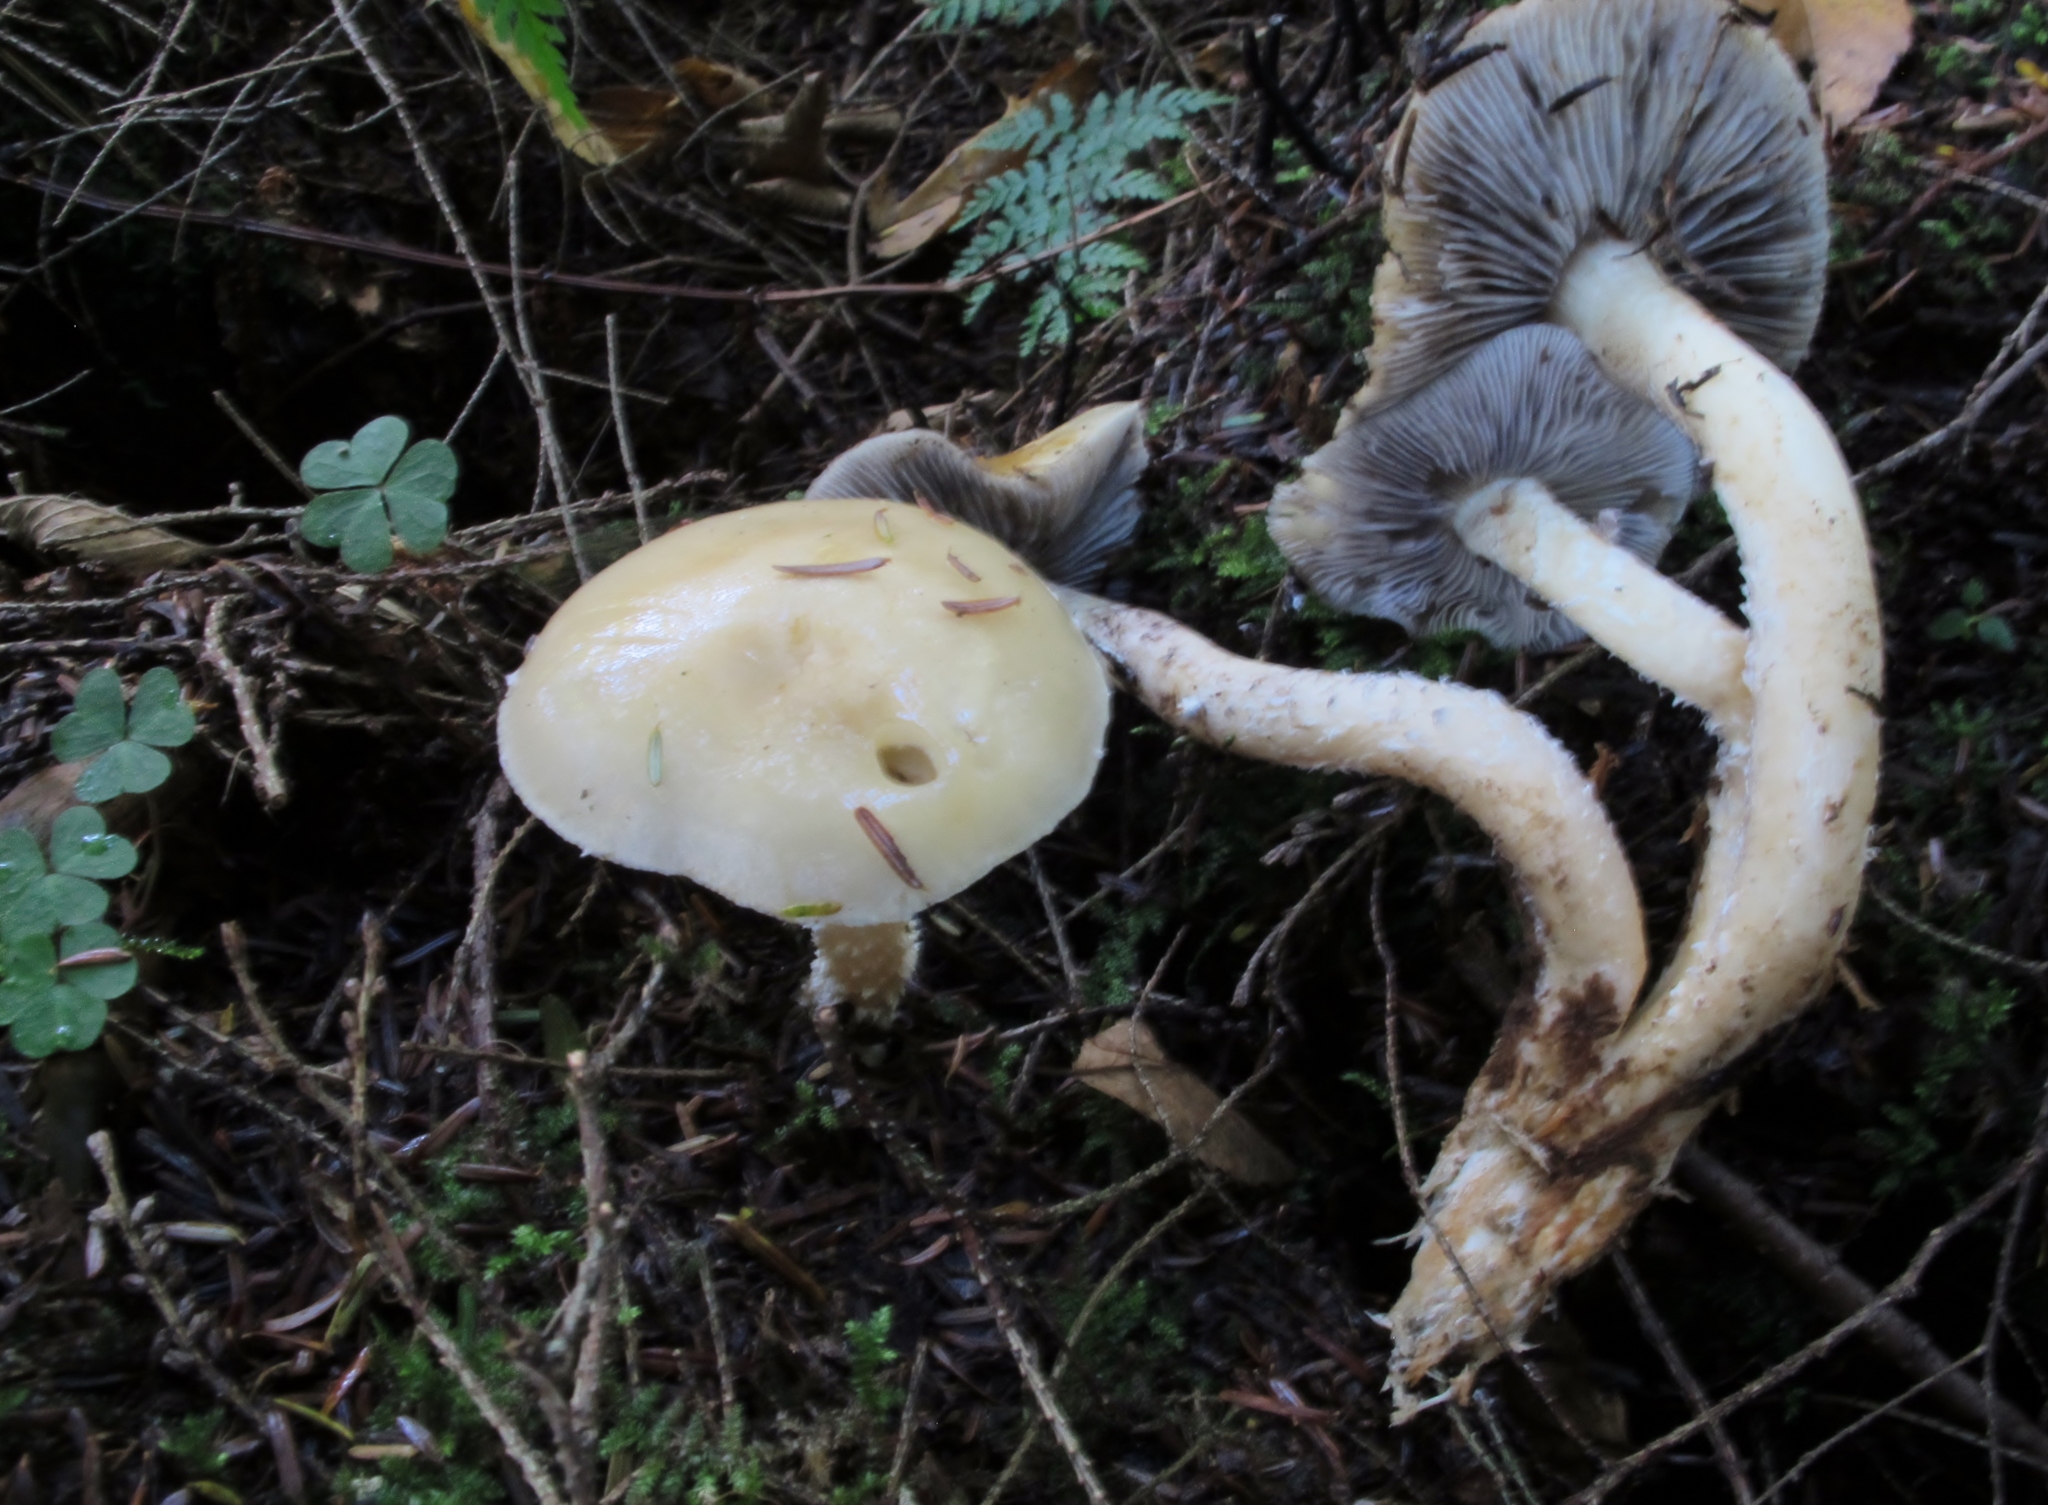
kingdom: Fungi
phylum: Basidiomycota
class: Agaricomycetes
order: Agaricales
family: Strophariaceae
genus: Stropharia
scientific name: Stropharia
